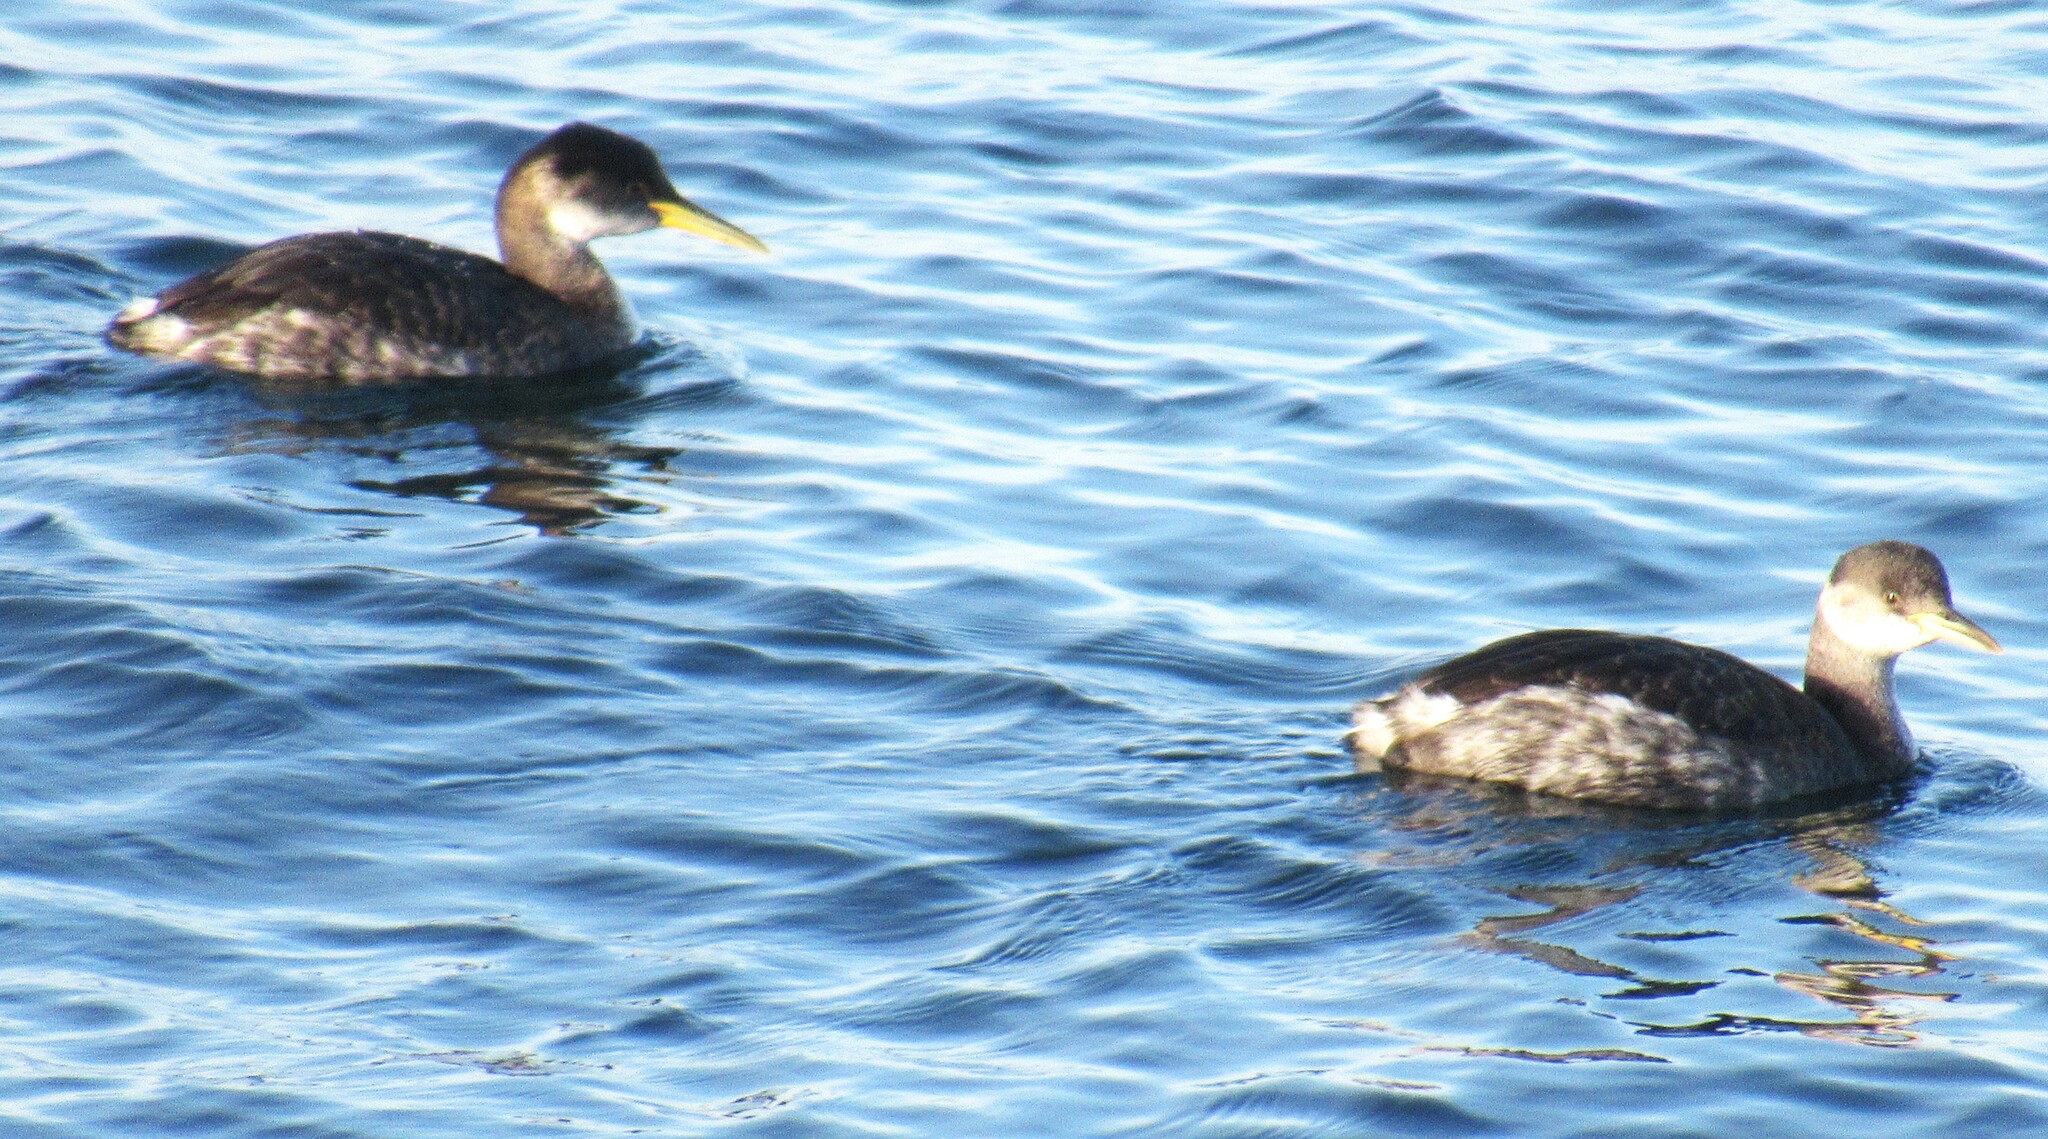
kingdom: Animalia
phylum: Chordata
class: Aves
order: Podicipediformes
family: Podicipedidae
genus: Podiceps
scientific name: Podiceps grisegena
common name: Red-necked grebe
